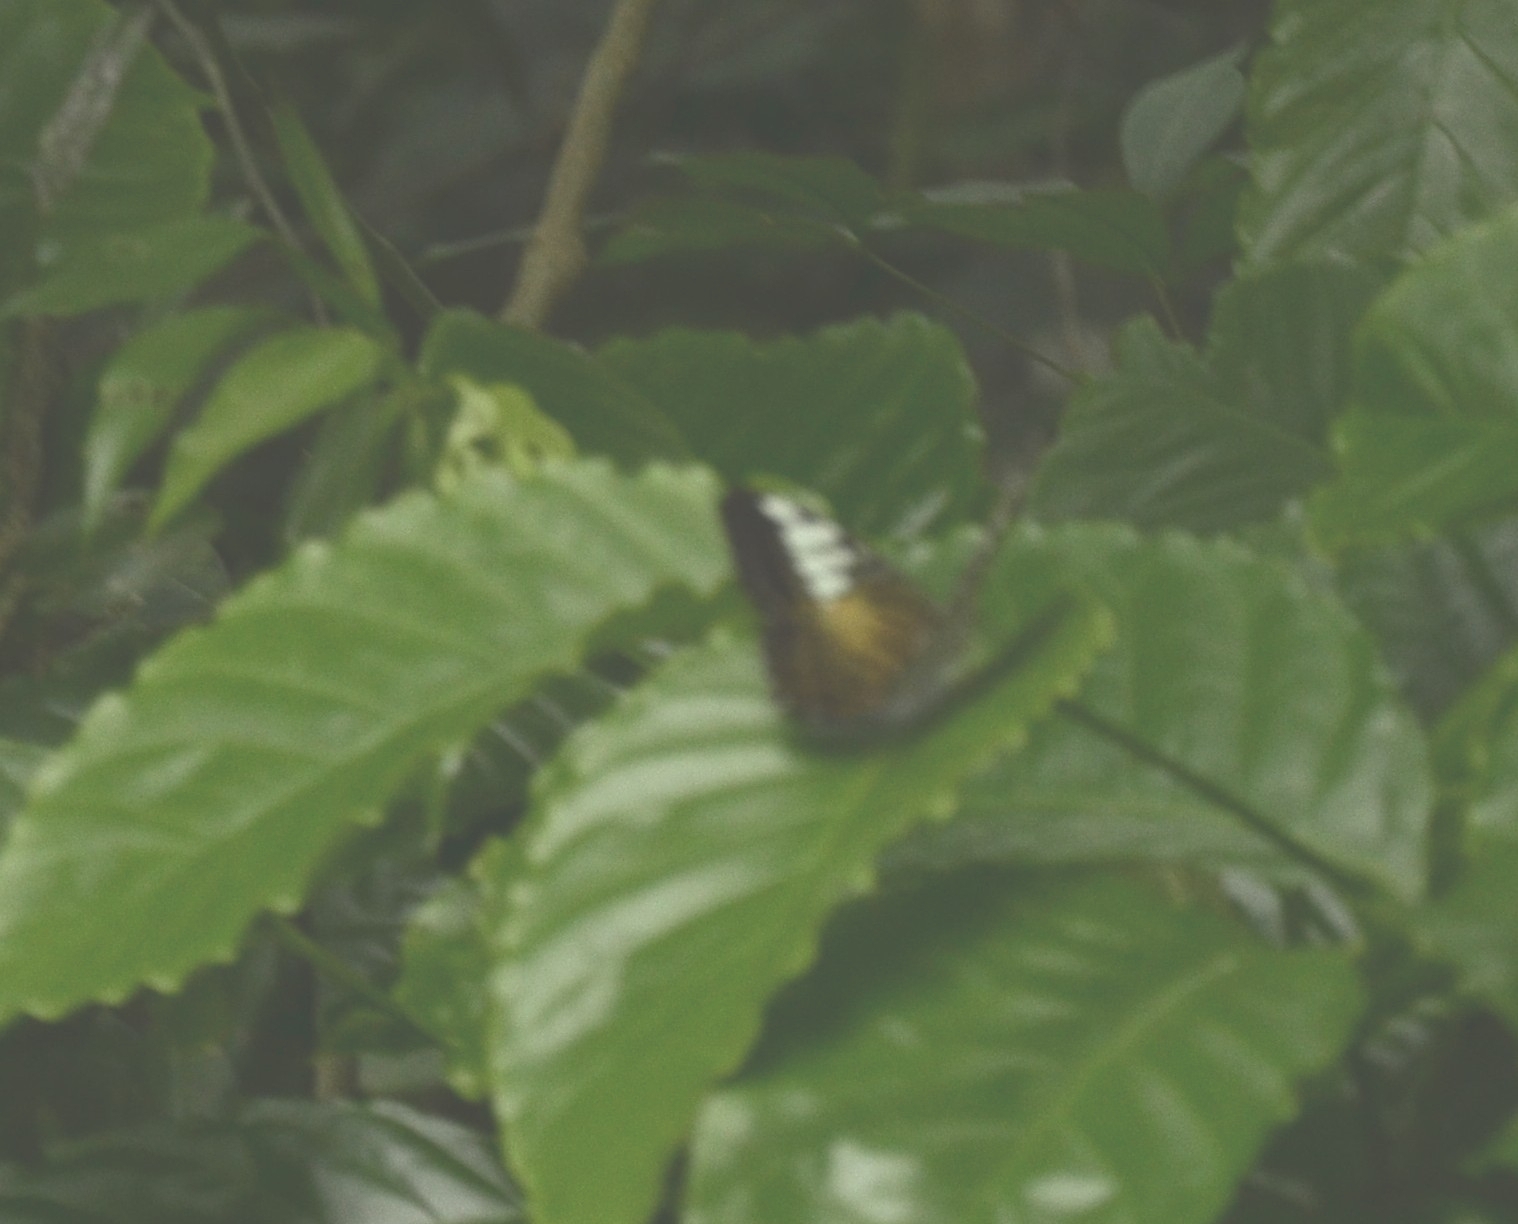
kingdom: Animalia
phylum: Arthropoda
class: Insecta
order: Lepidoptera
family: Nymphalidae
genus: Kallima
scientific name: Kallima sylvia
